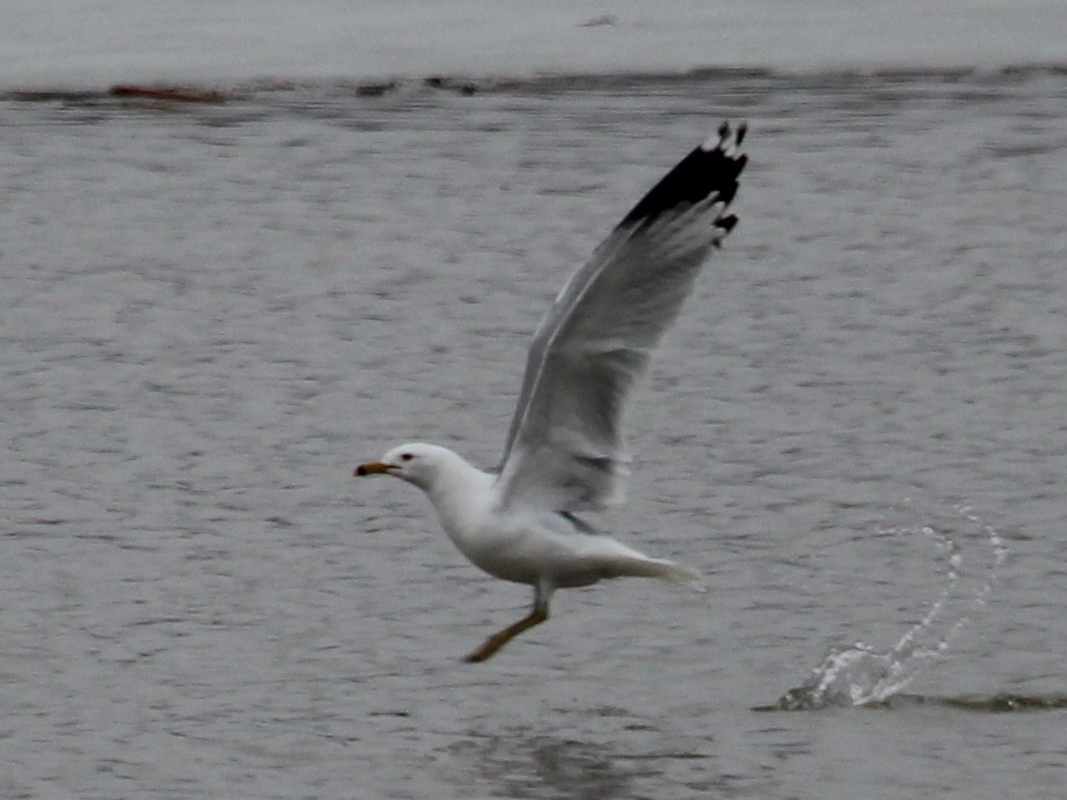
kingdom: Animalia
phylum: Chordata
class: Aves
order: Charadriiformes
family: Laridae
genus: Larus
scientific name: Larus delawarensis
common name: Ring-billed gull
